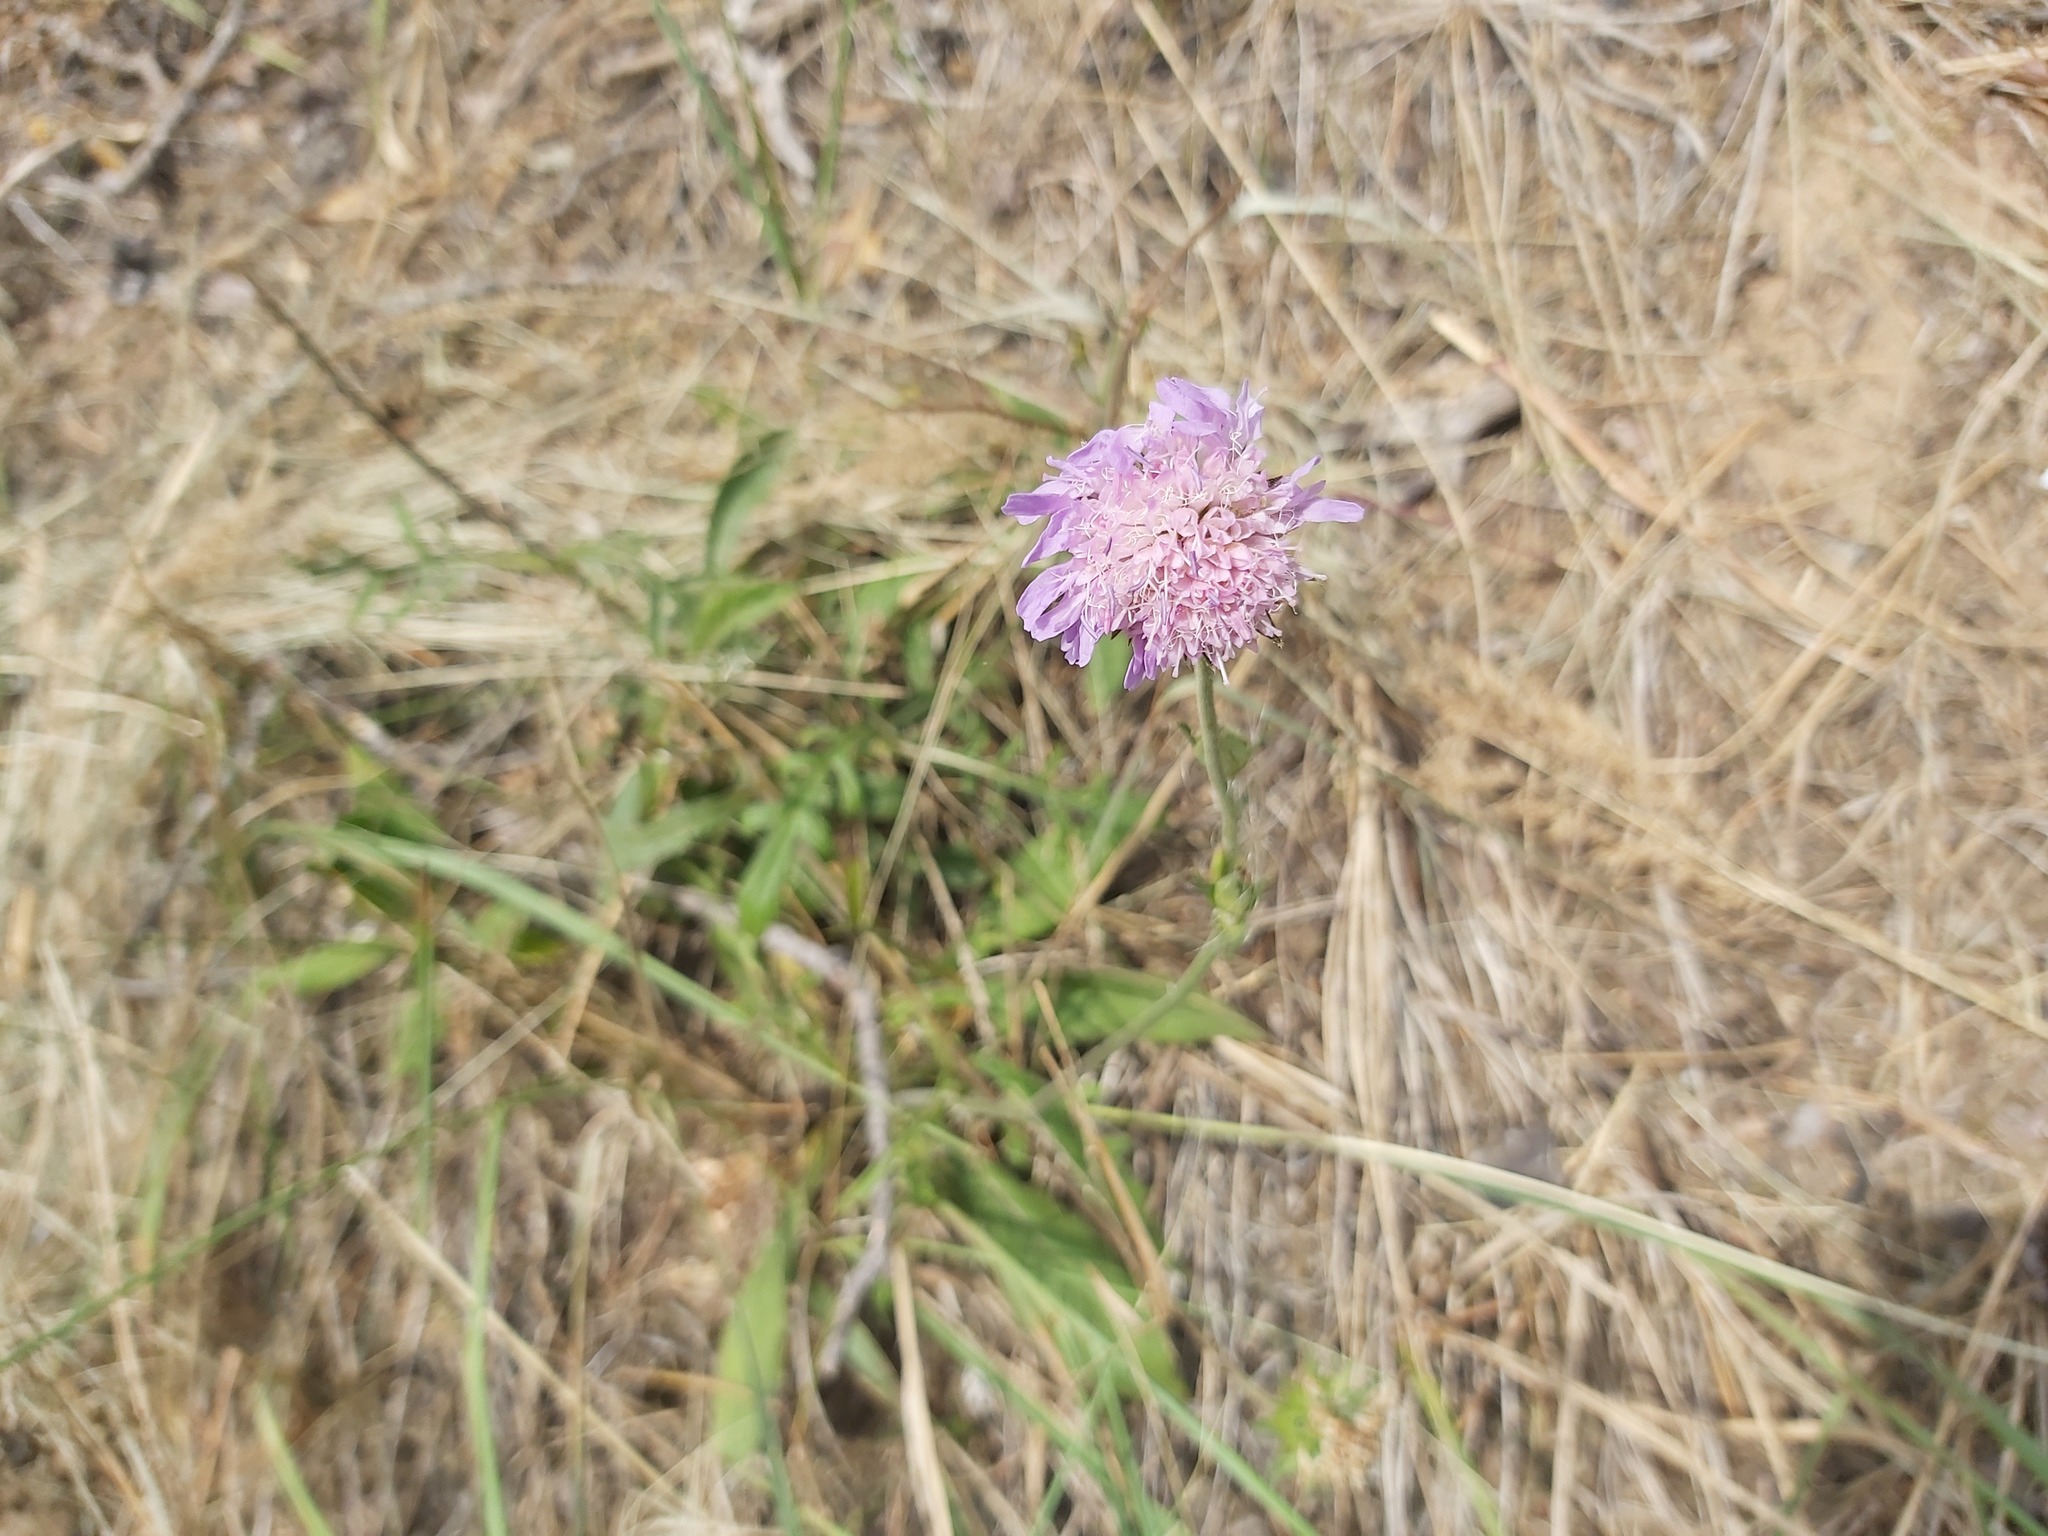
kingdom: Plantae
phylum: Tracheophyta
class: Magnoliopsida
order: Dipsacales
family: Caprifoliaceae
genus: Knautia
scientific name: Knautia arvensis
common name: Field scabiosa
